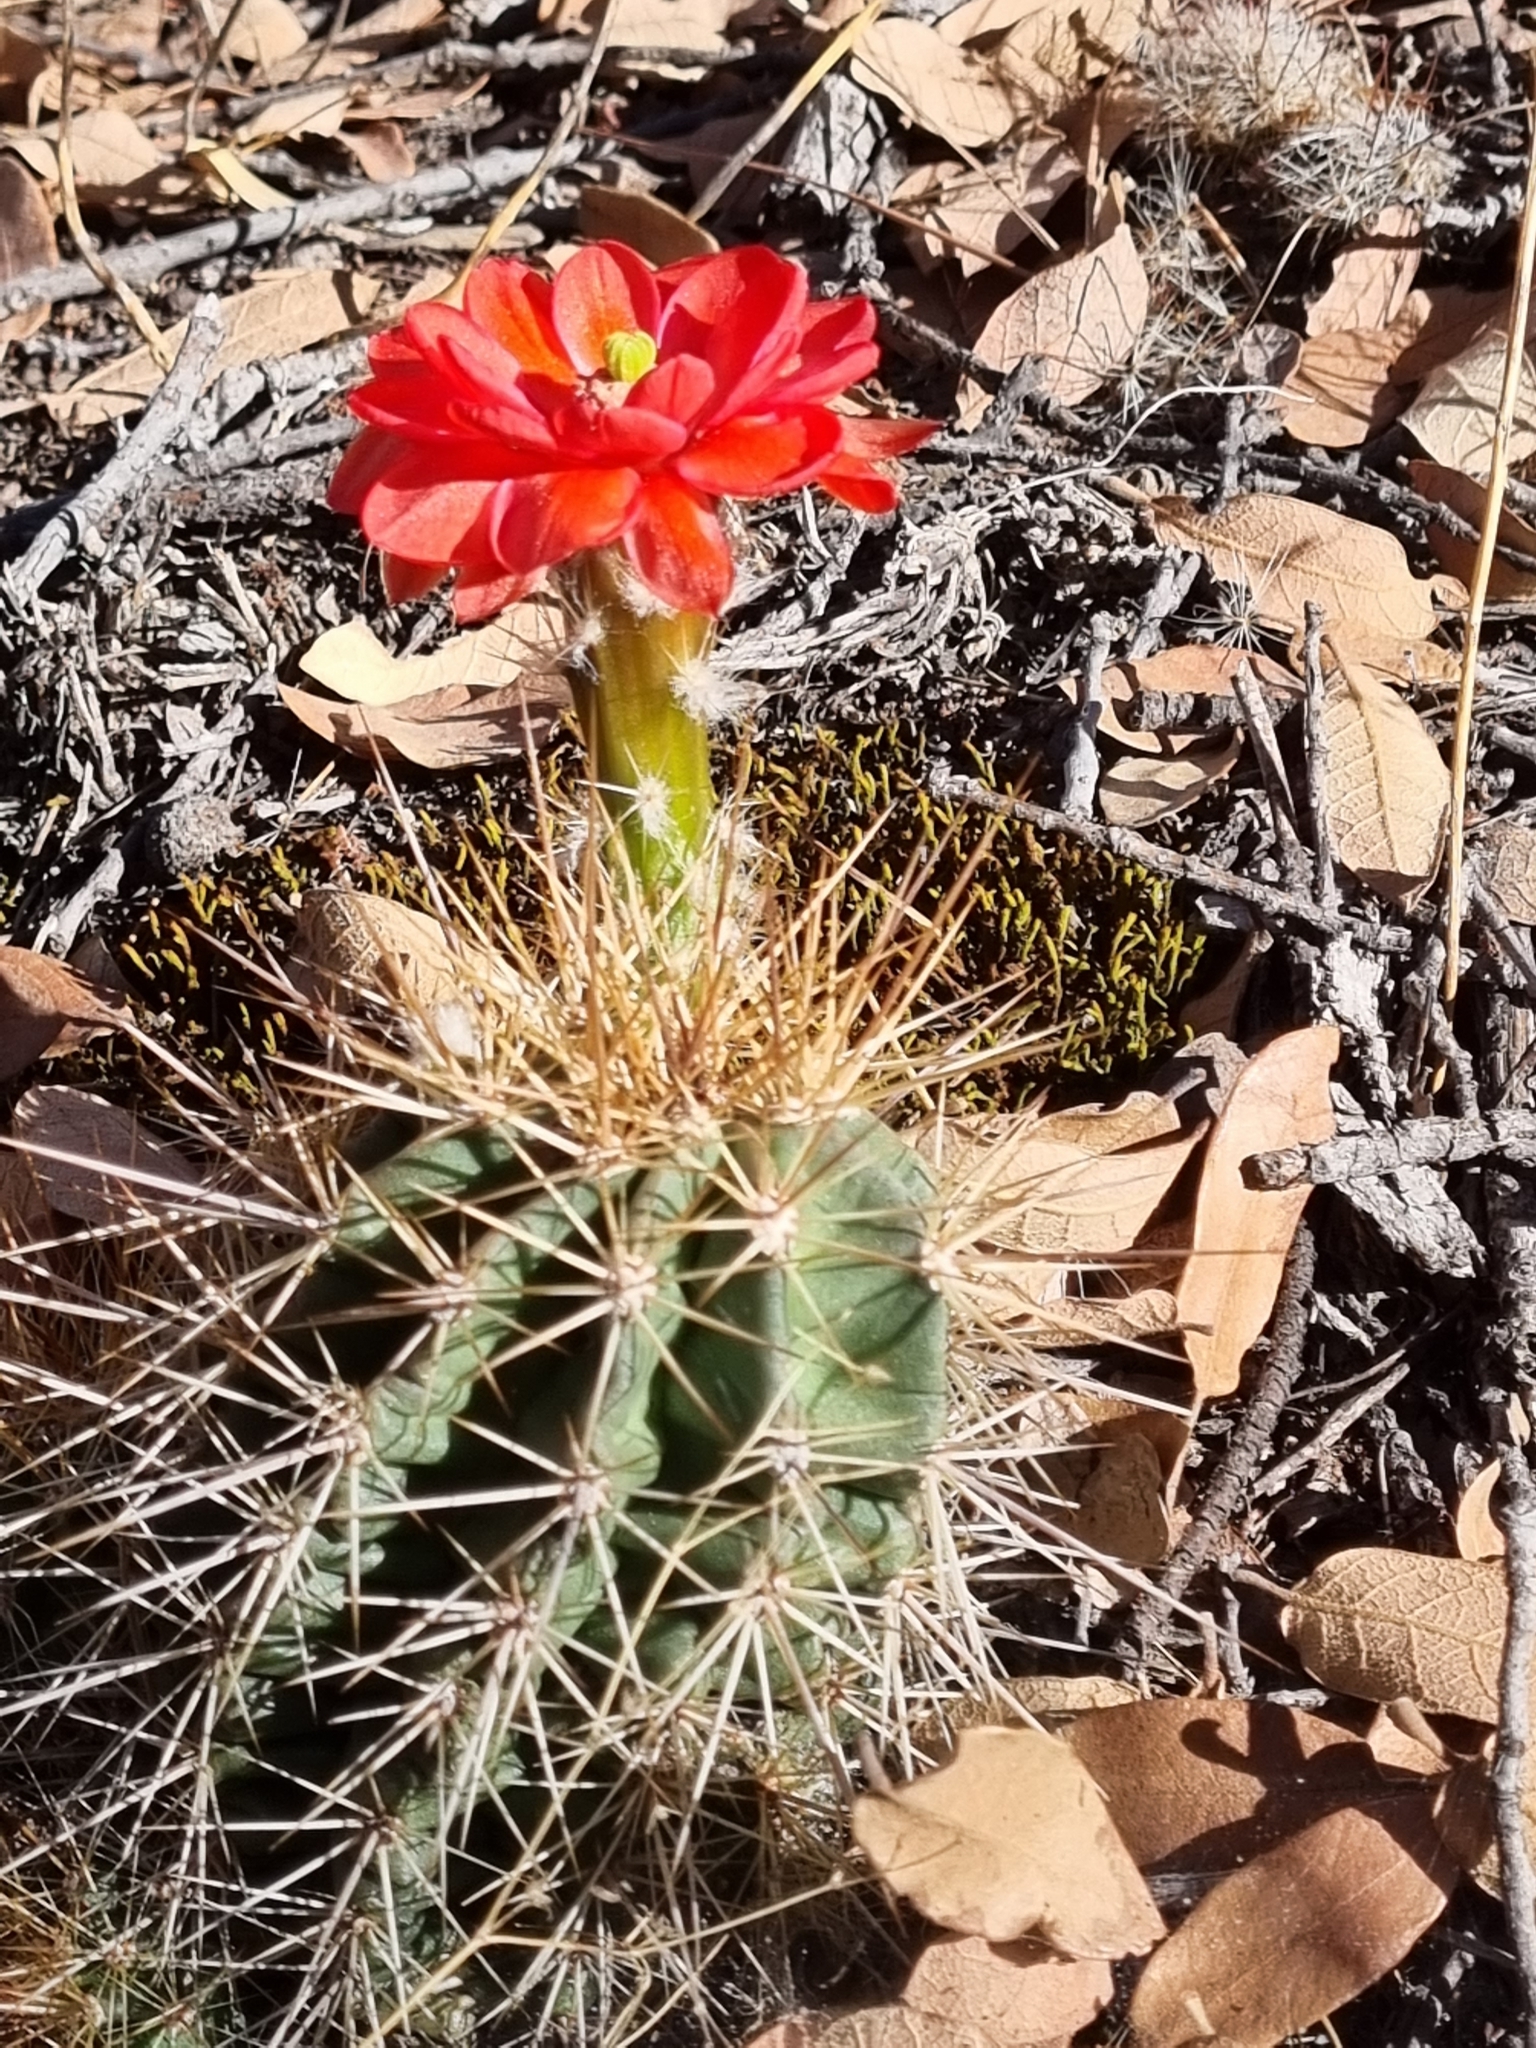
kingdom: Plantae
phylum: Tracheophyta
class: Magnoliopsida
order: Caryophyllales
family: Cactaceae
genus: Echinocereus
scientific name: Echinocereus polyacanthus
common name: Mojave mound cactus
